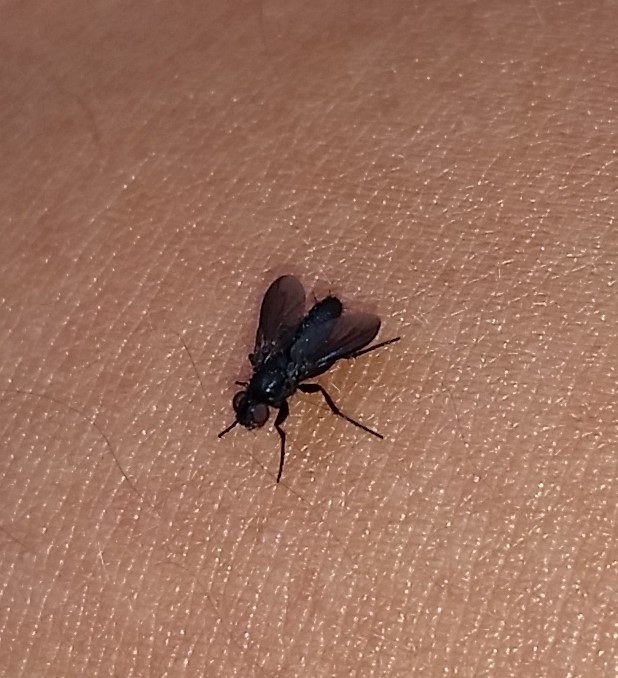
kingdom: Animalia
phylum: Arthropoda
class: Insecta
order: Diptera
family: Calliphoridae
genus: Melanophora
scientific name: Melanophora roralis
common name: Smoky-winged woodlouse-fly
